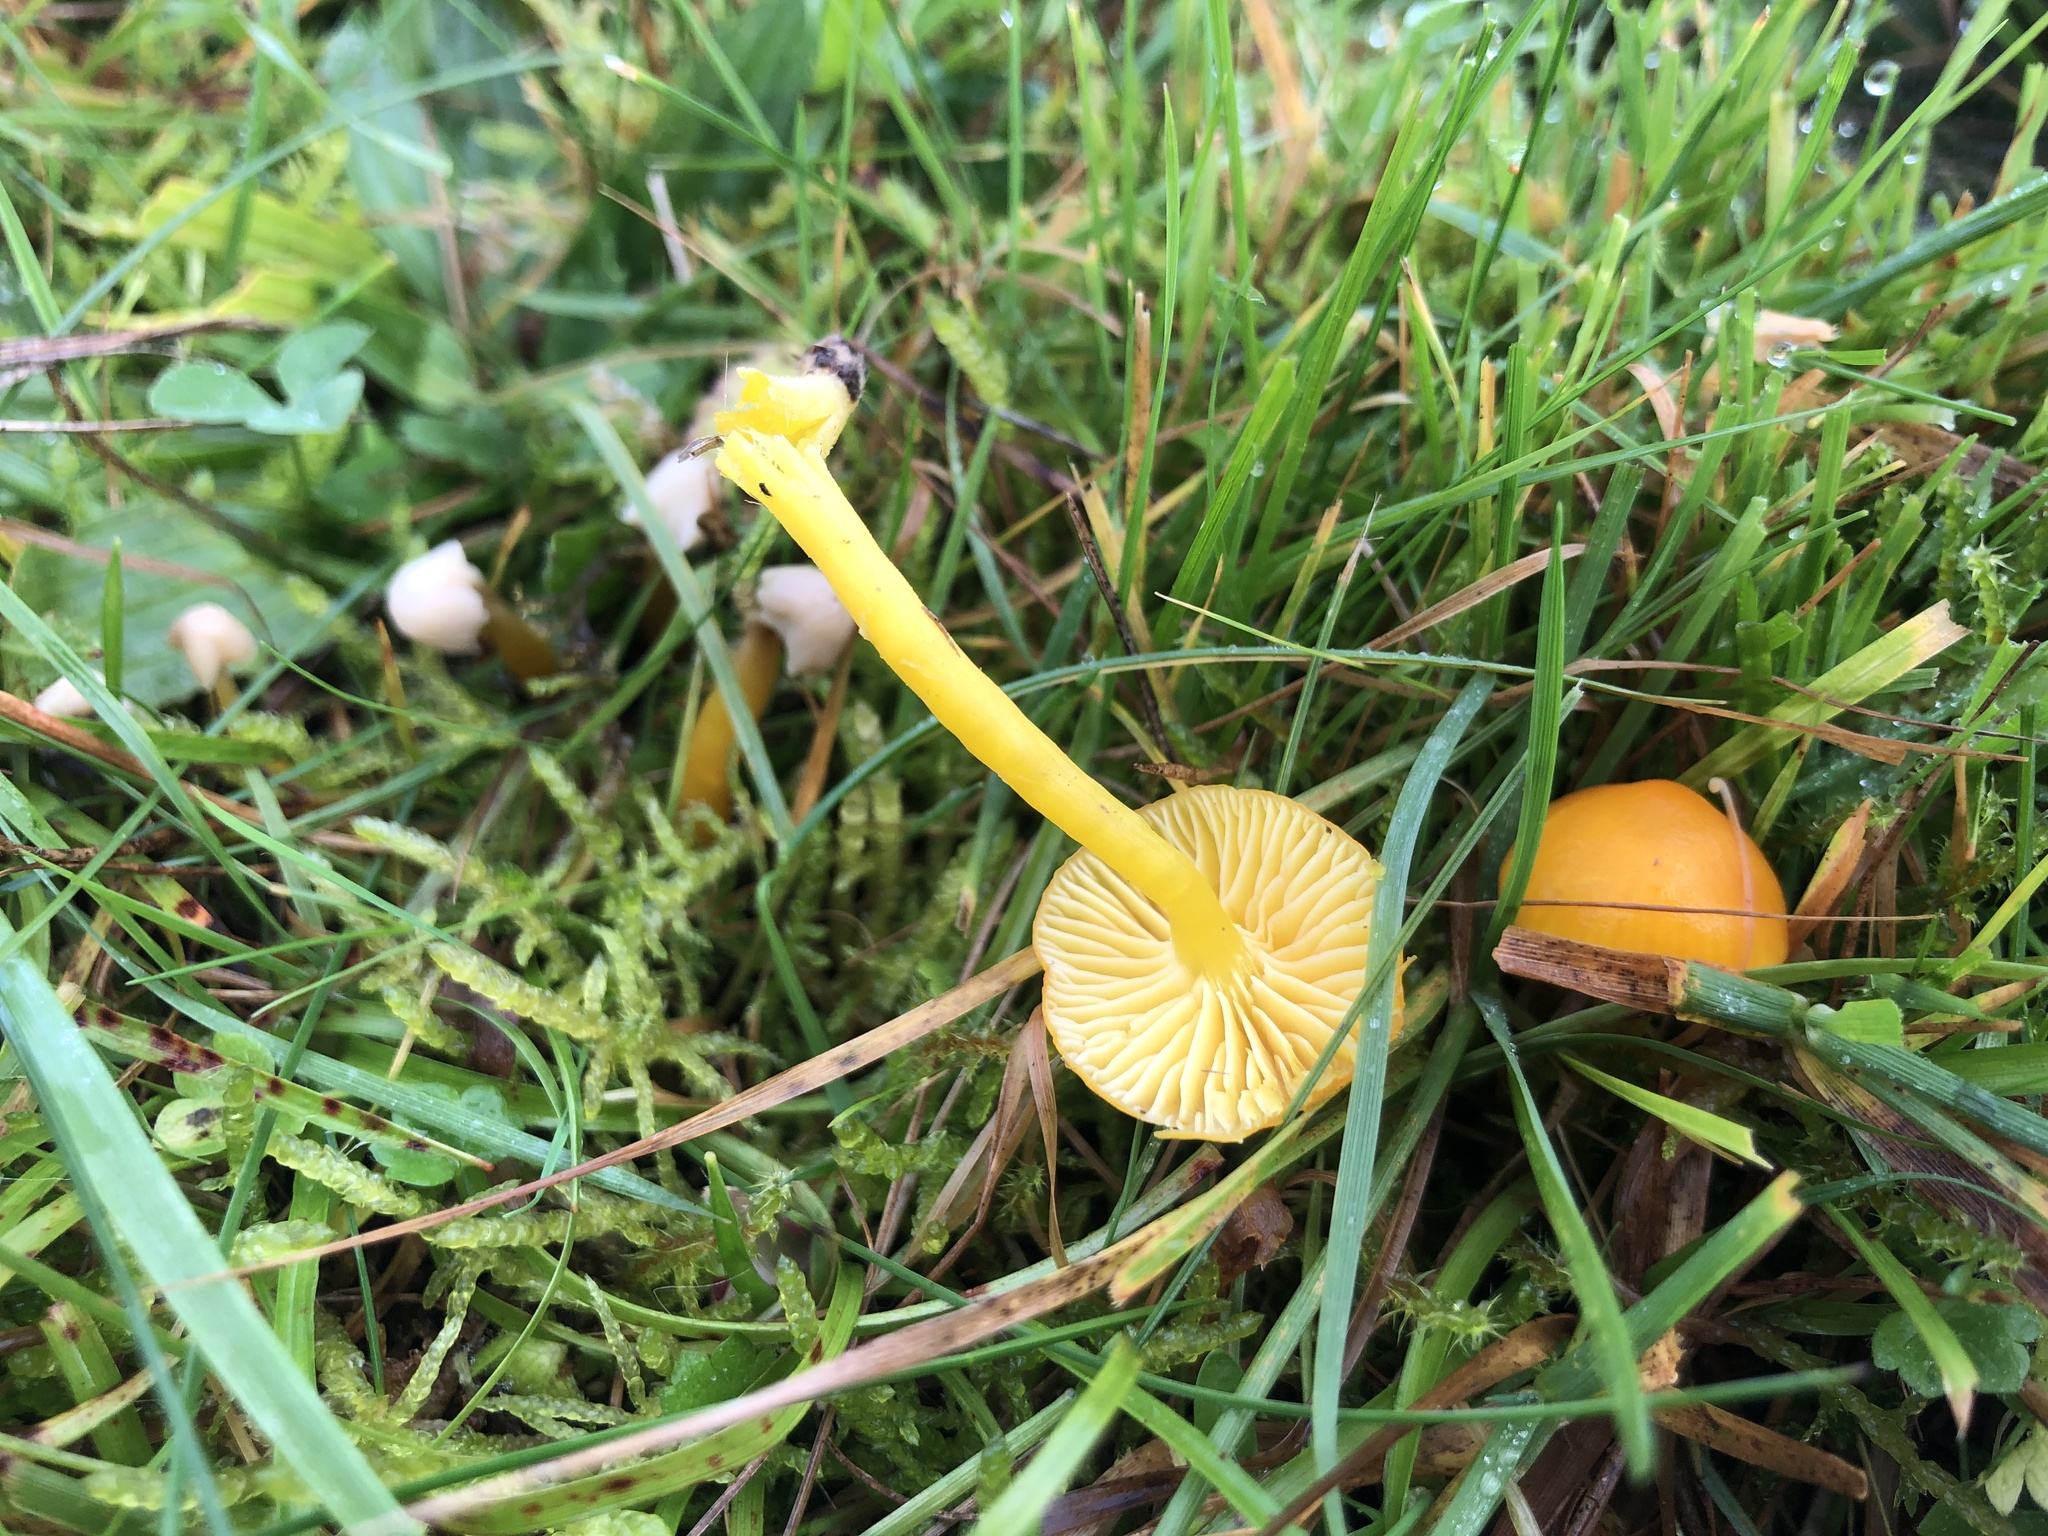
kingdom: Fungi
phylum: Basidiomycota
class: Agaricomycetes
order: Agaricales
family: Hygrophoraceae
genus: Hygrocybe
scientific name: Hygrocybe ceracea
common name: Butter waxcap
